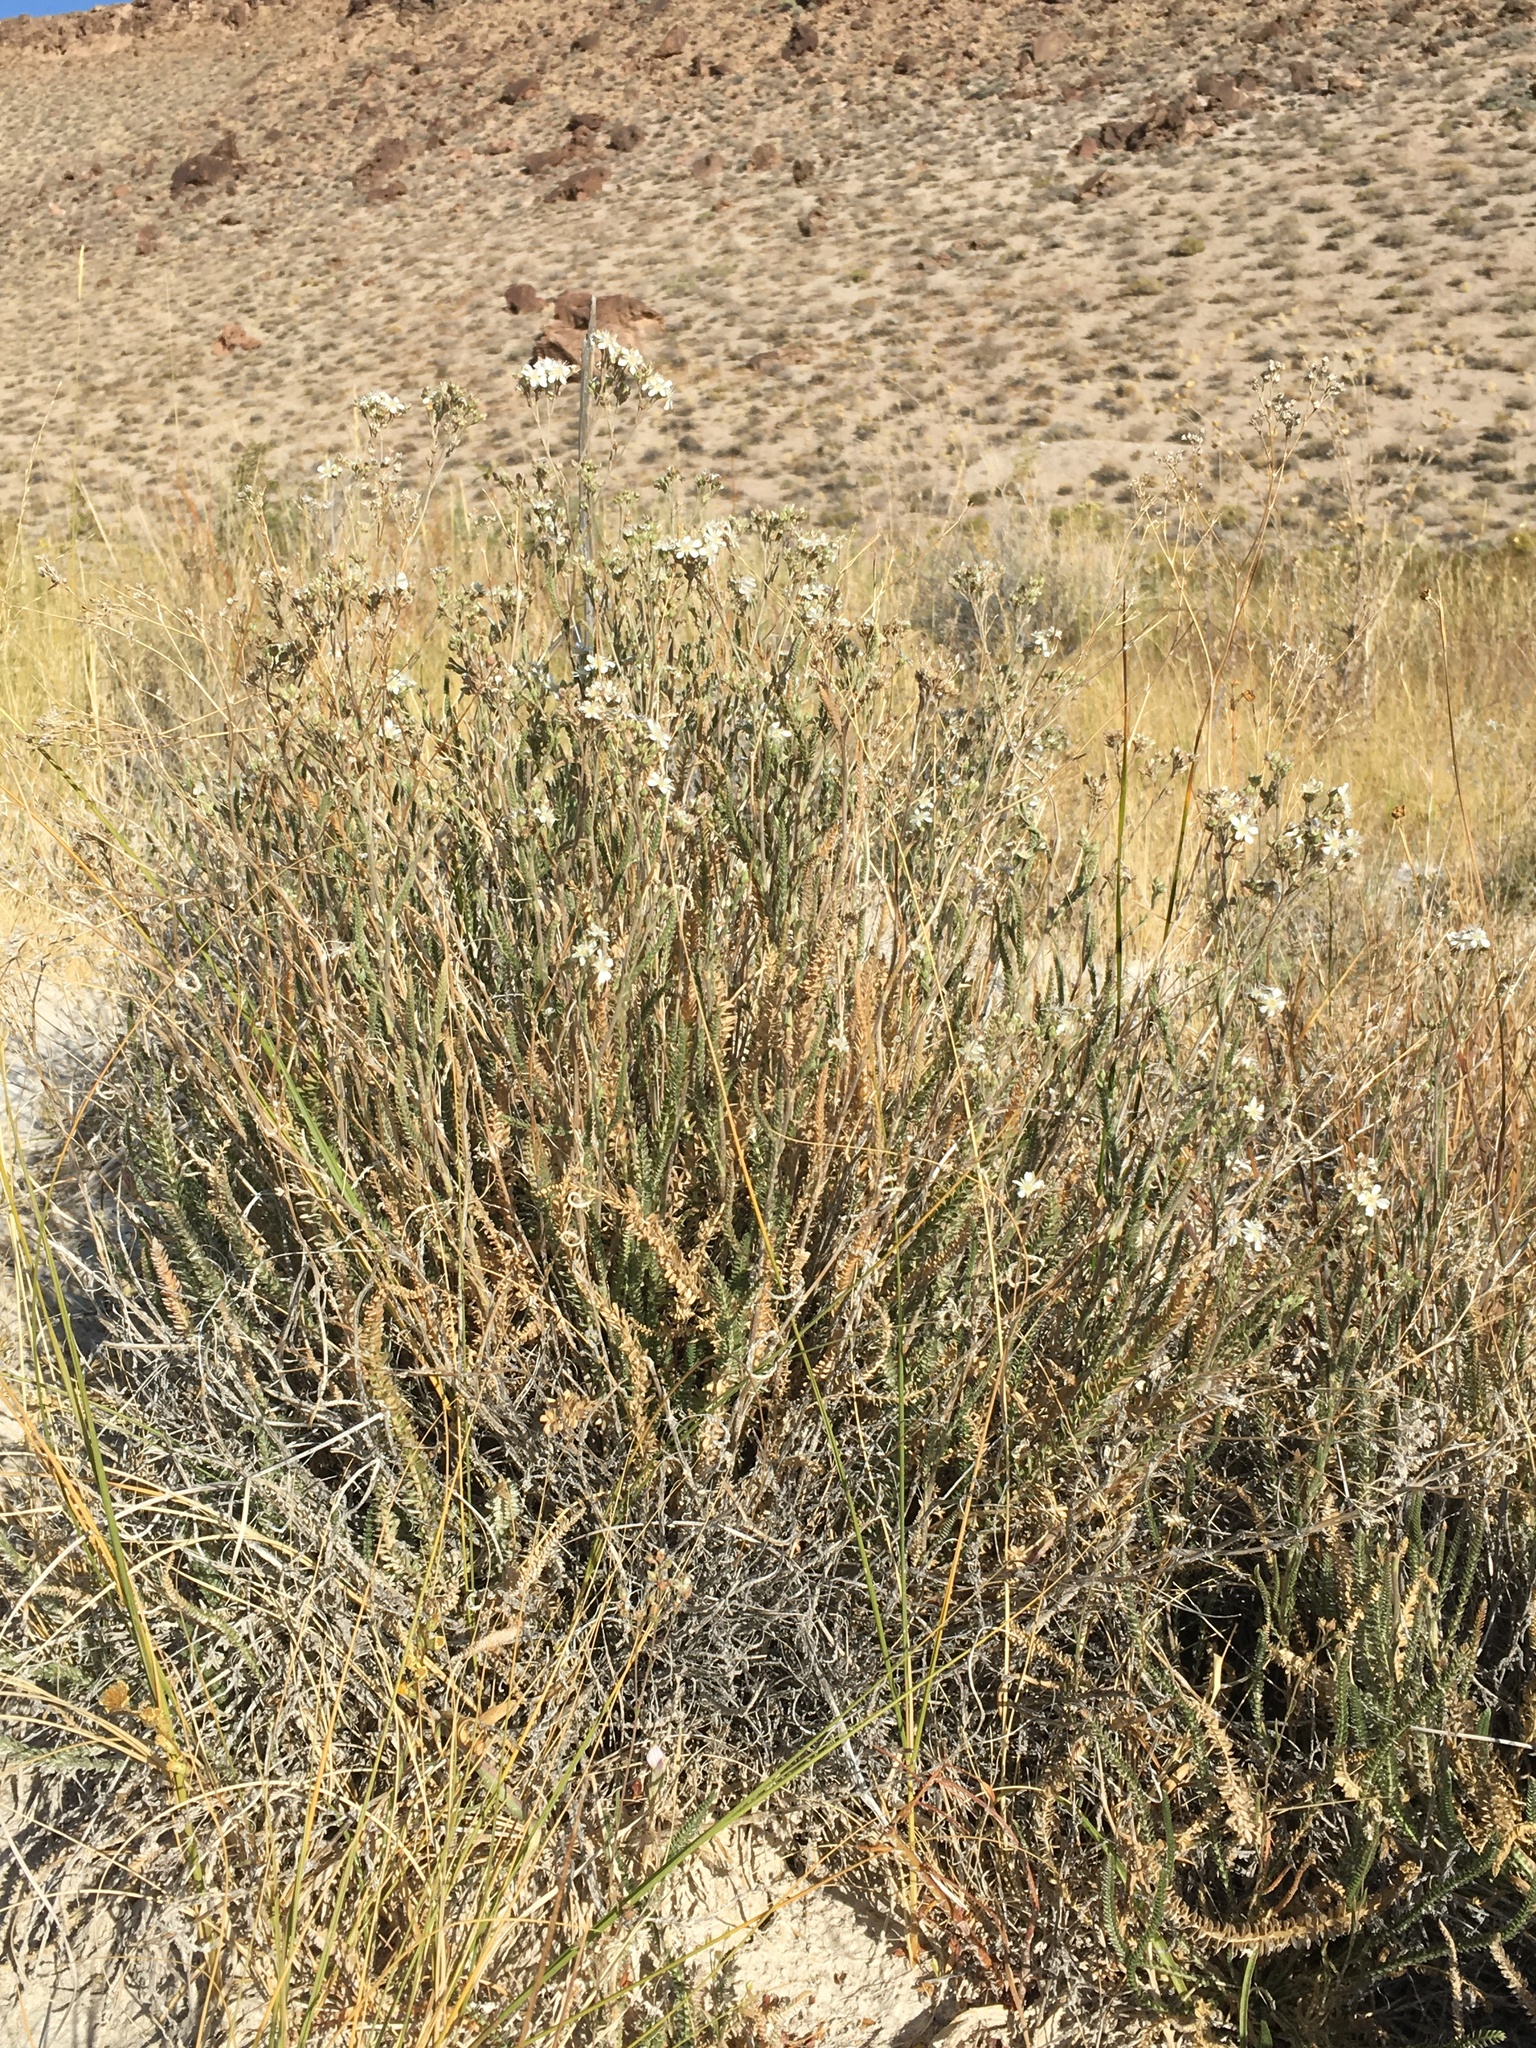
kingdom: Plantae
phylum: Tracheophyta
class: Magnoliopsida
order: Rosales
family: Rosaceae
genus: Potentilla
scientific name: Potentilla kingii
